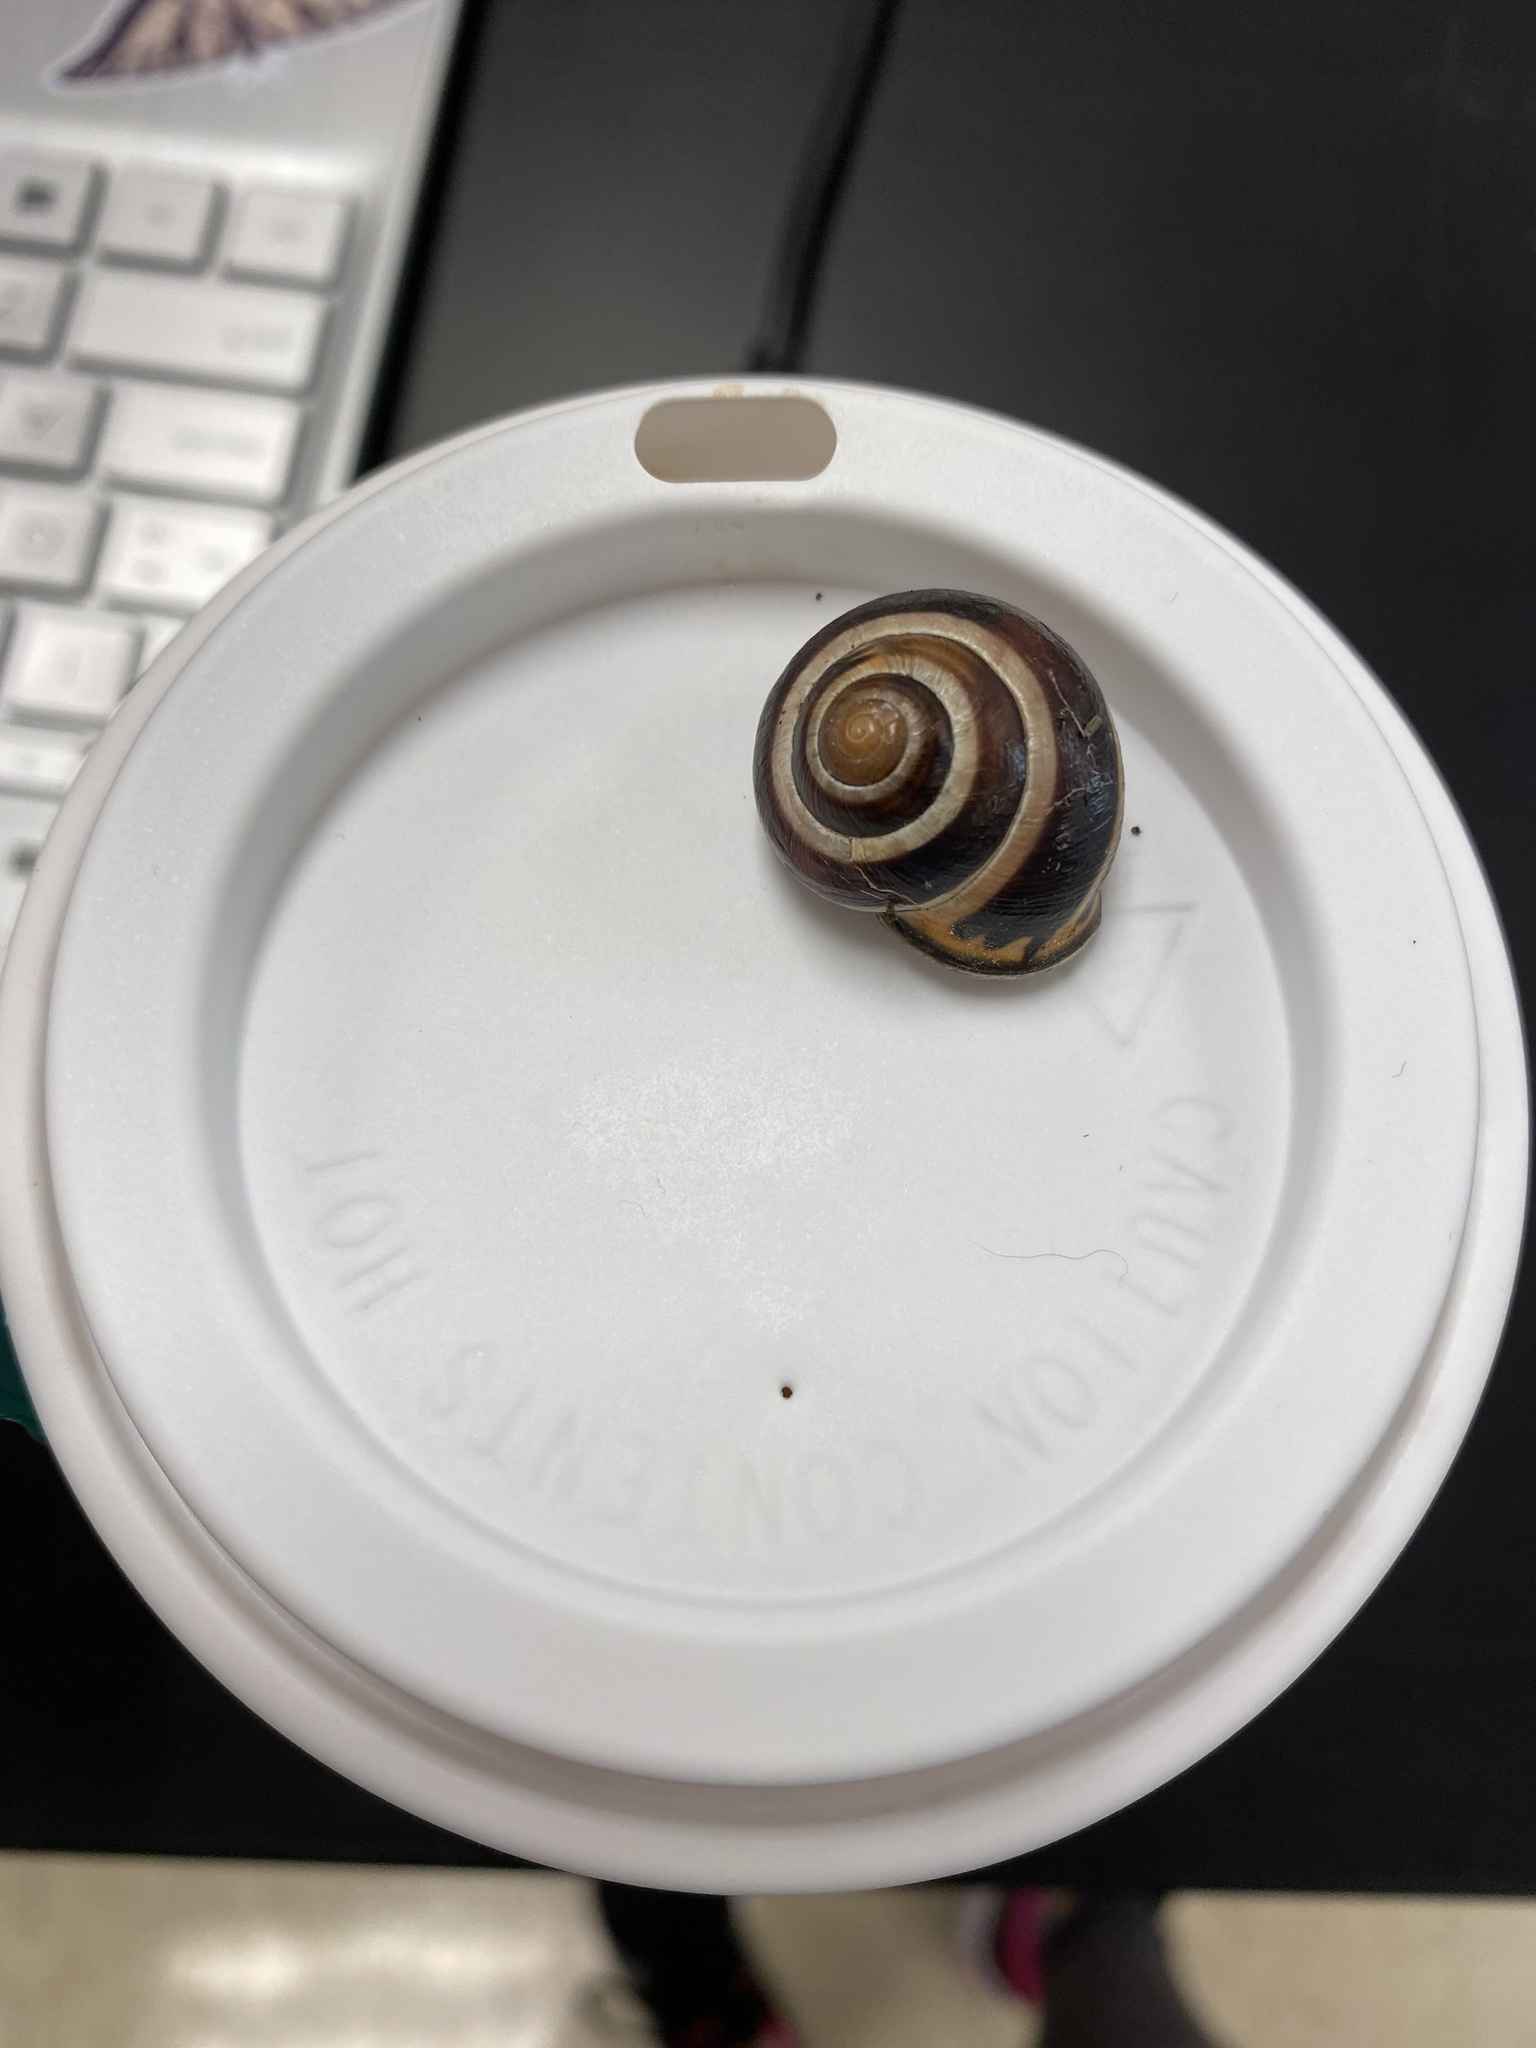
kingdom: Animalia
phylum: Mollusca
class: Gastropoda
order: Stylommatophora
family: Helicidae
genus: Cepaea
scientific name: Cepaea nemoralis
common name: Grovesnail
